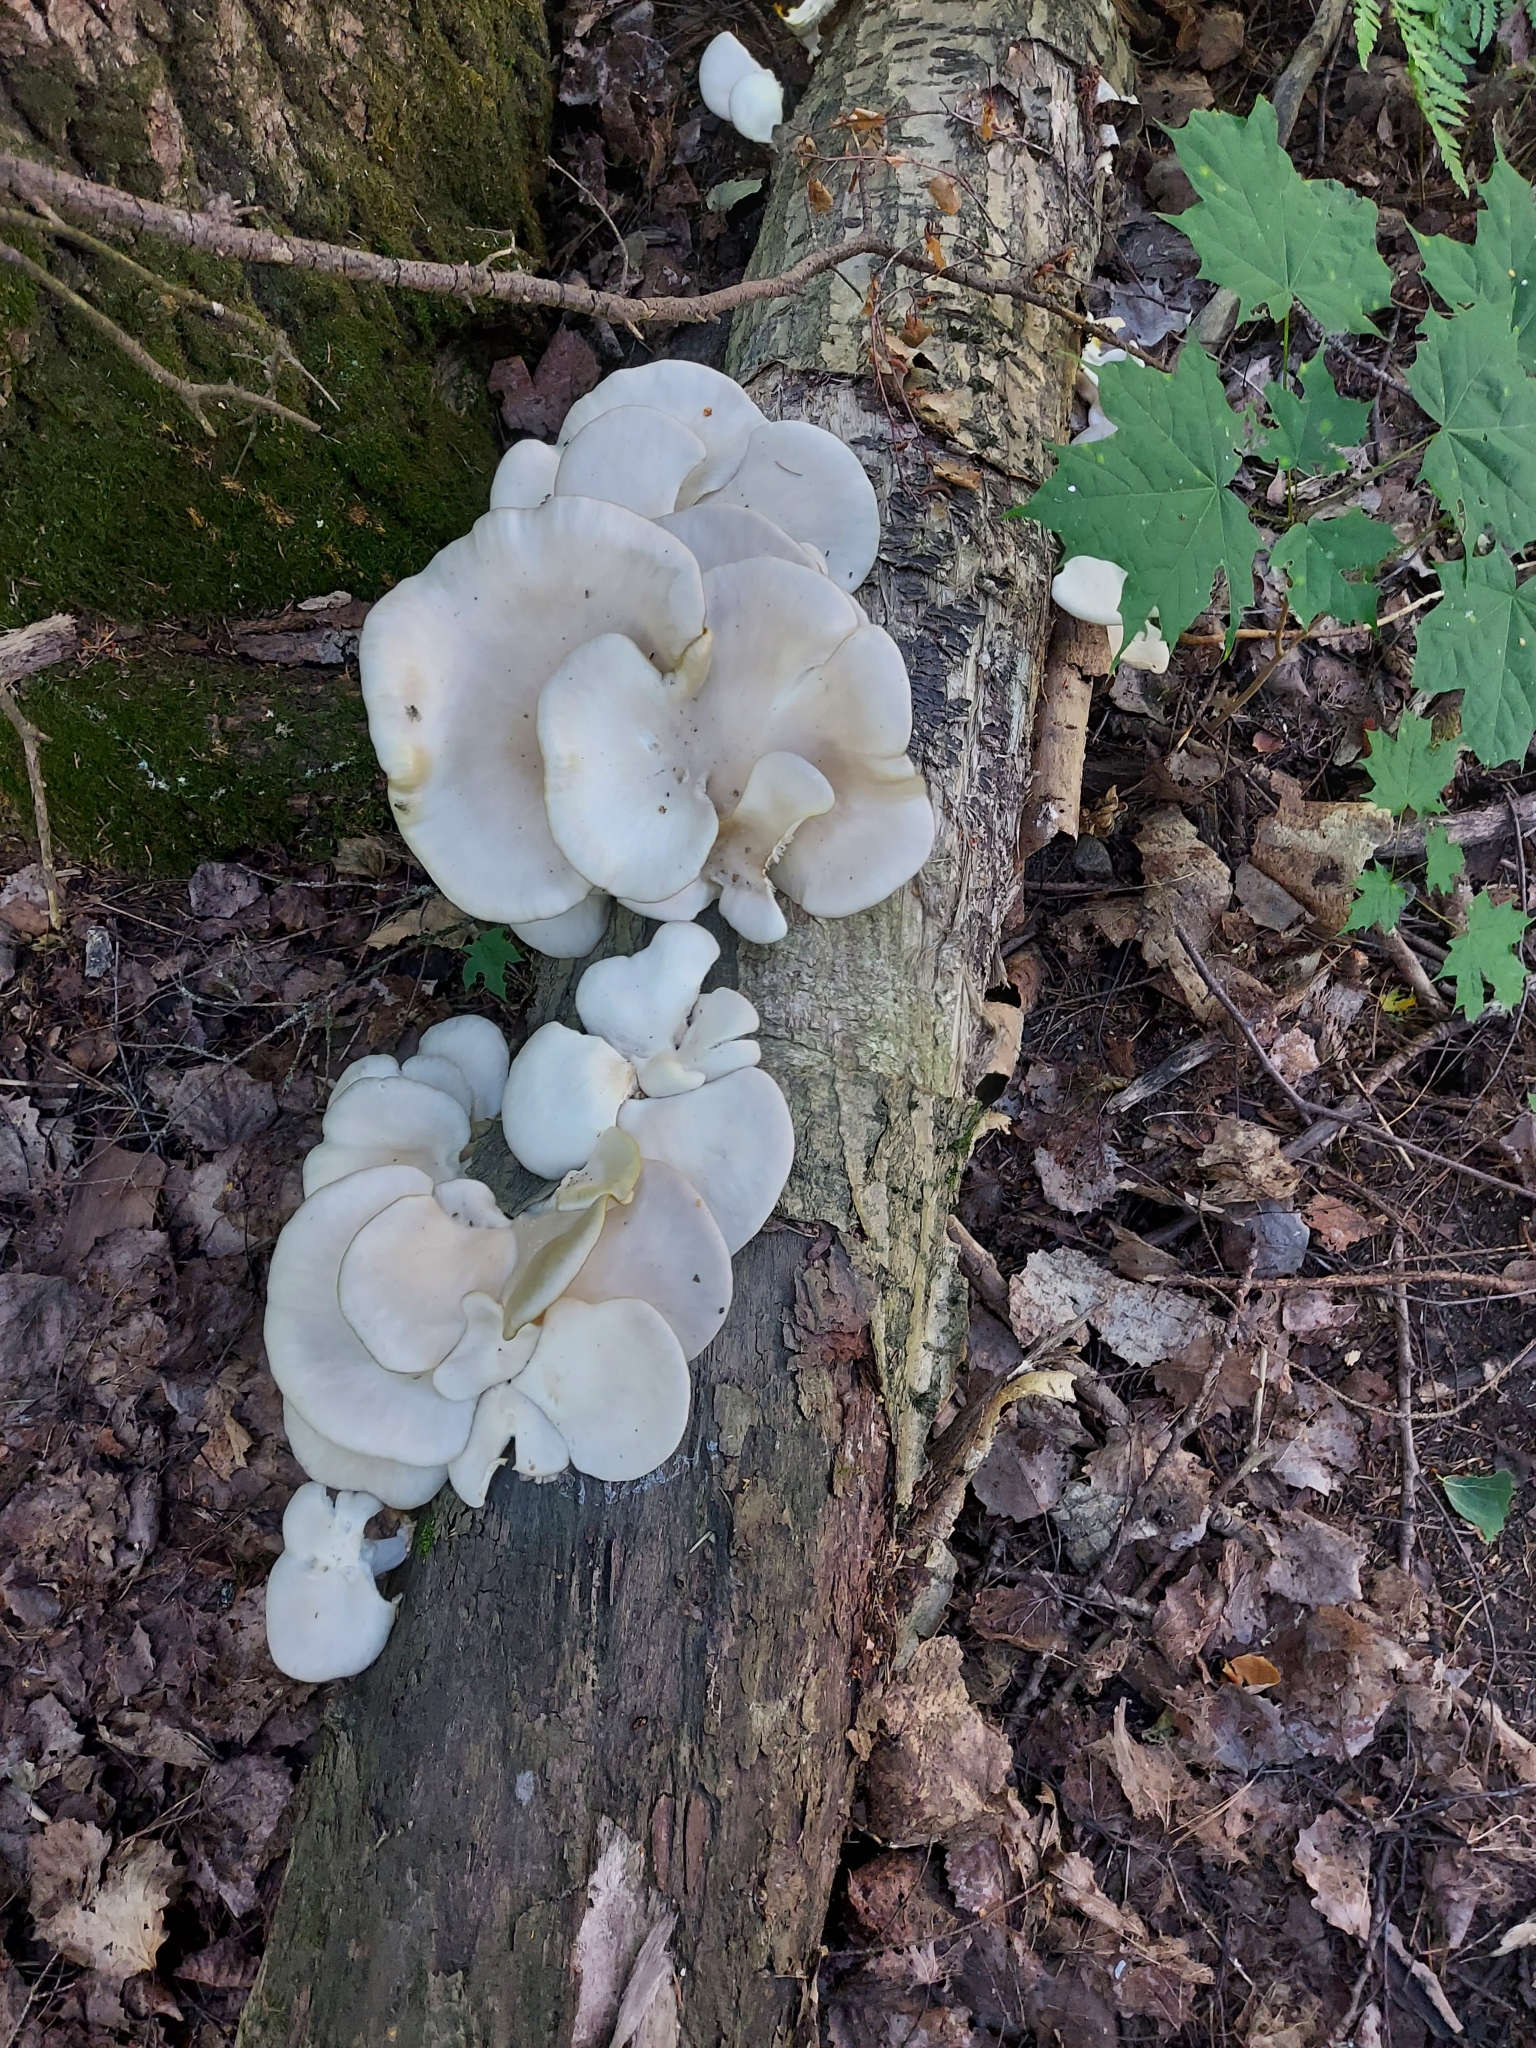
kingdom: Fungi
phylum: Basidiomycota
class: Agaricomycetes
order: Agaricales
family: Pleurotaceae
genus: Pleurotus
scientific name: Pleurotus pulmonarius
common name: Pale oyster
